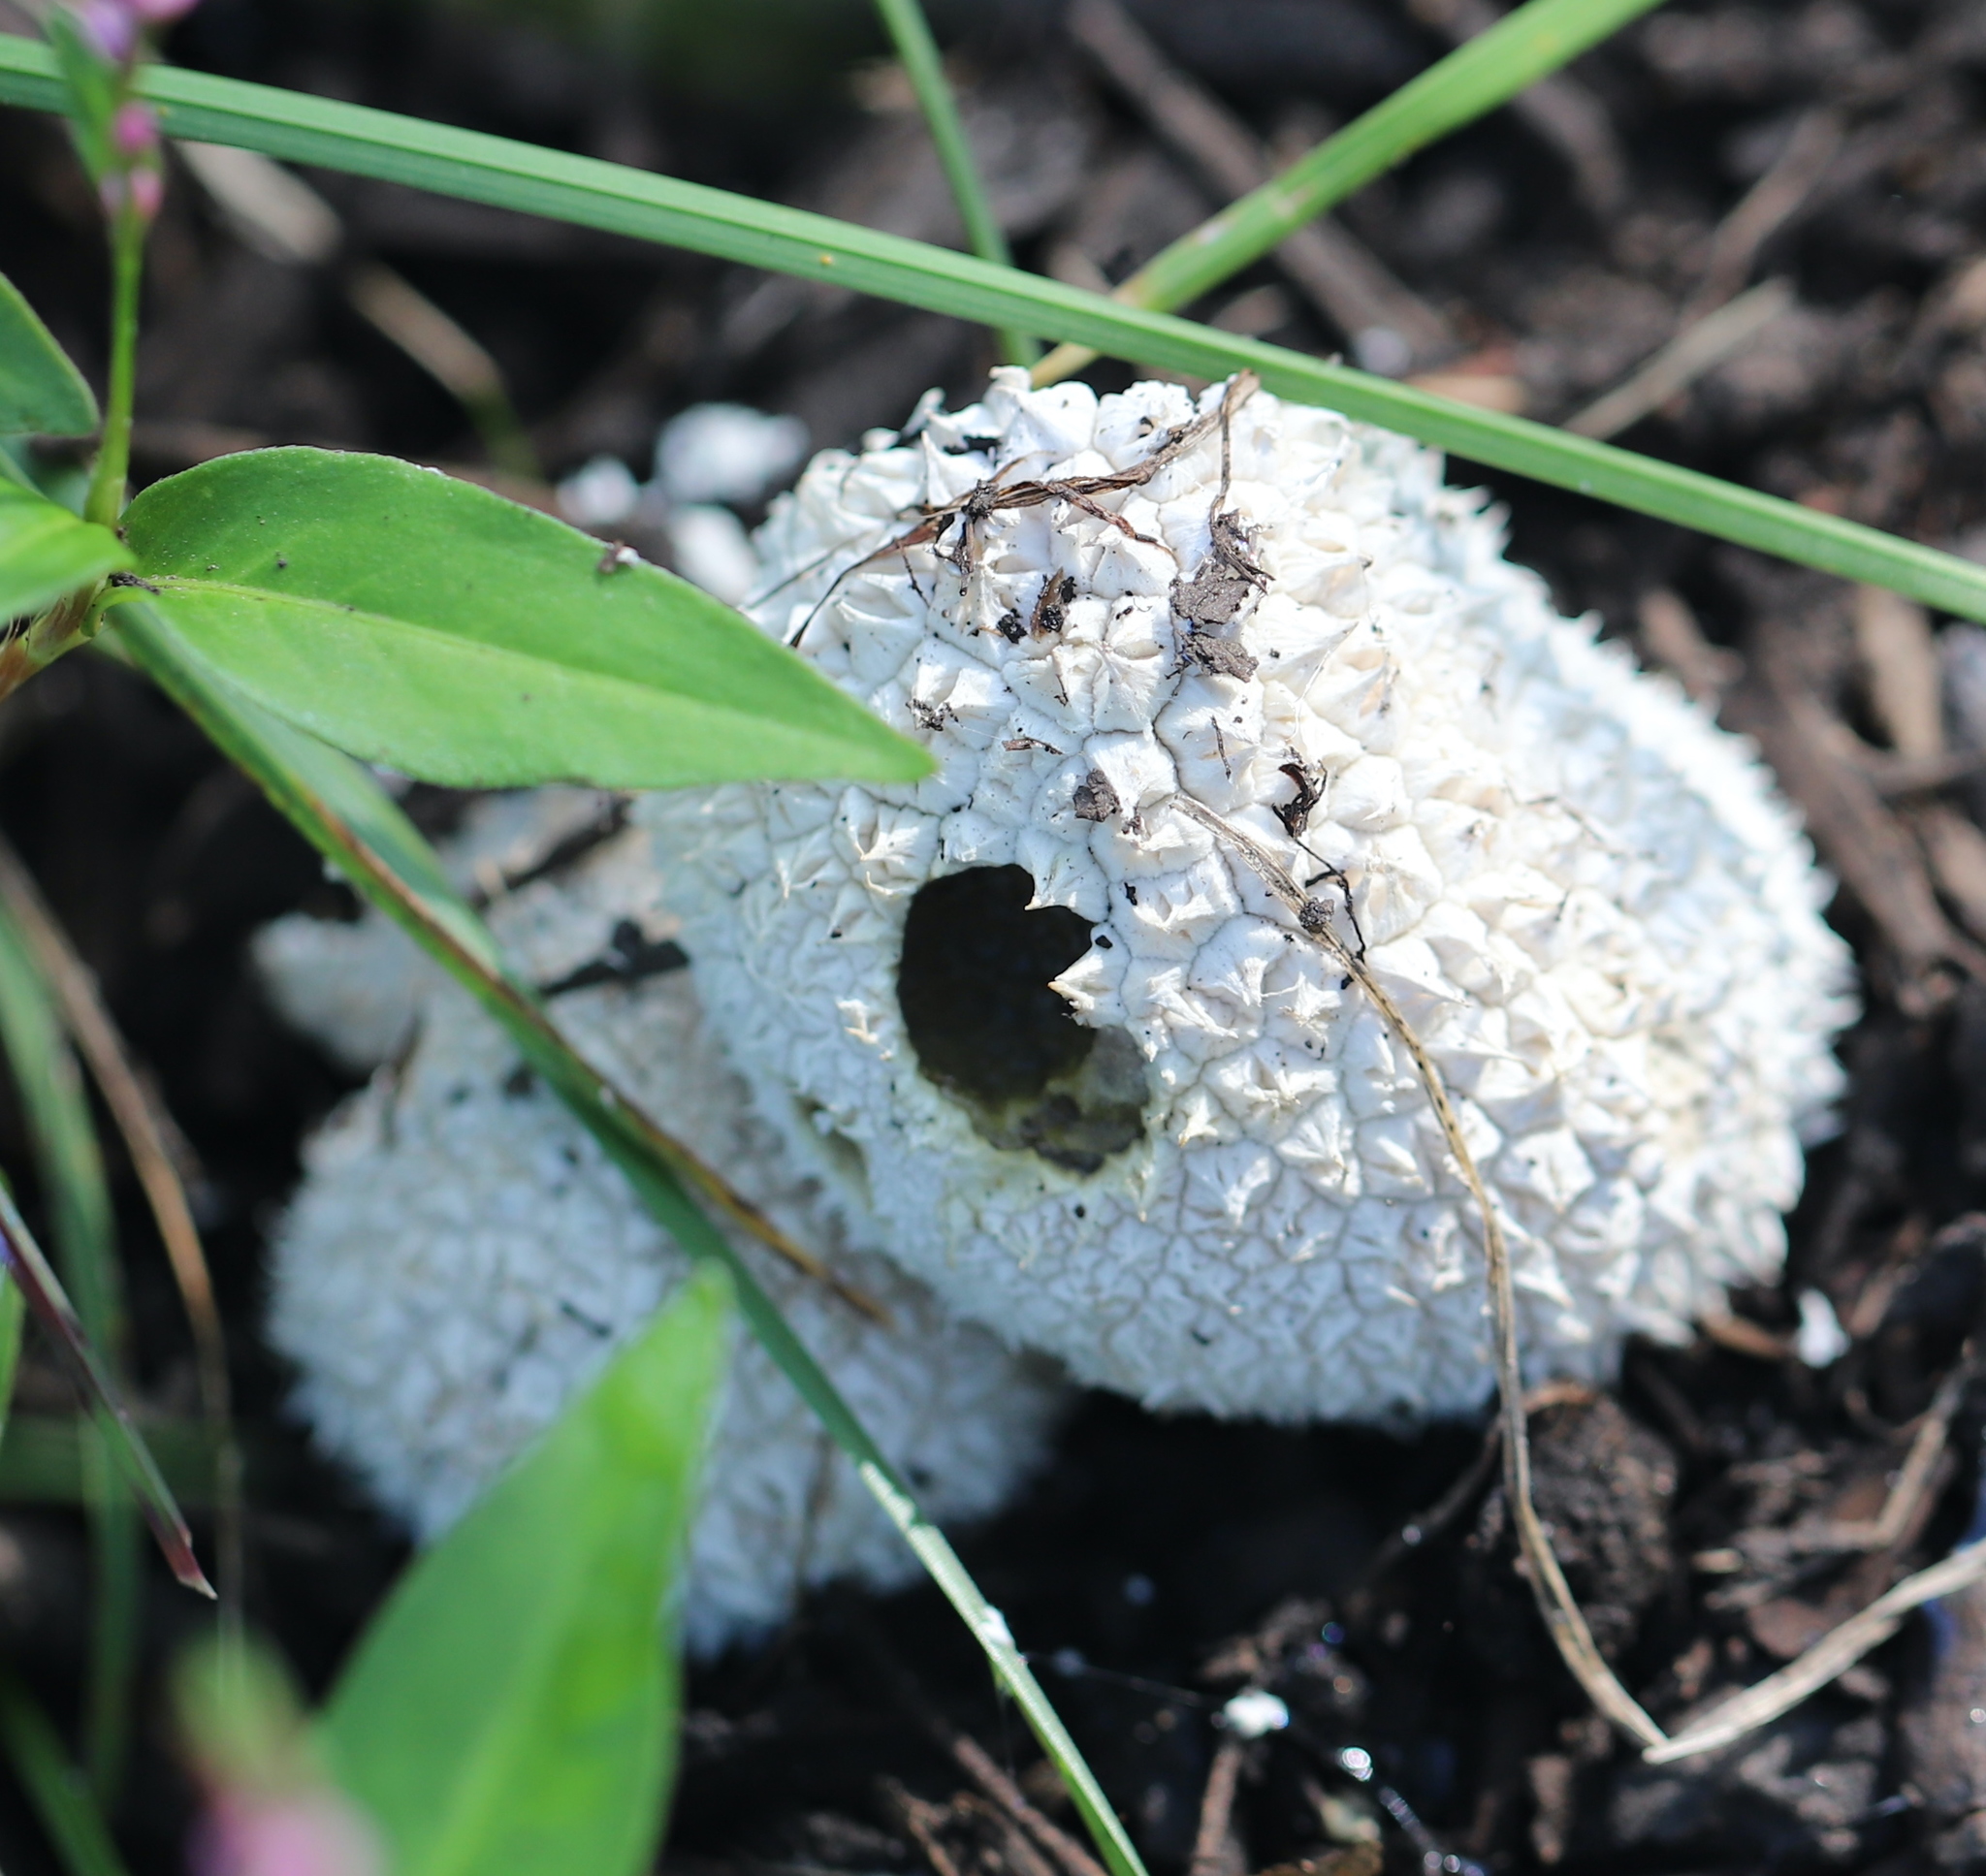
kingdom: Fungi
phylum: Basidiomycota
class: Agaricomycetes
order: Agaricales
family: Agaricaceae
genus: Lycoperdon
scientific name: Lycoperdon marginatum
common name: Peeling puffball
